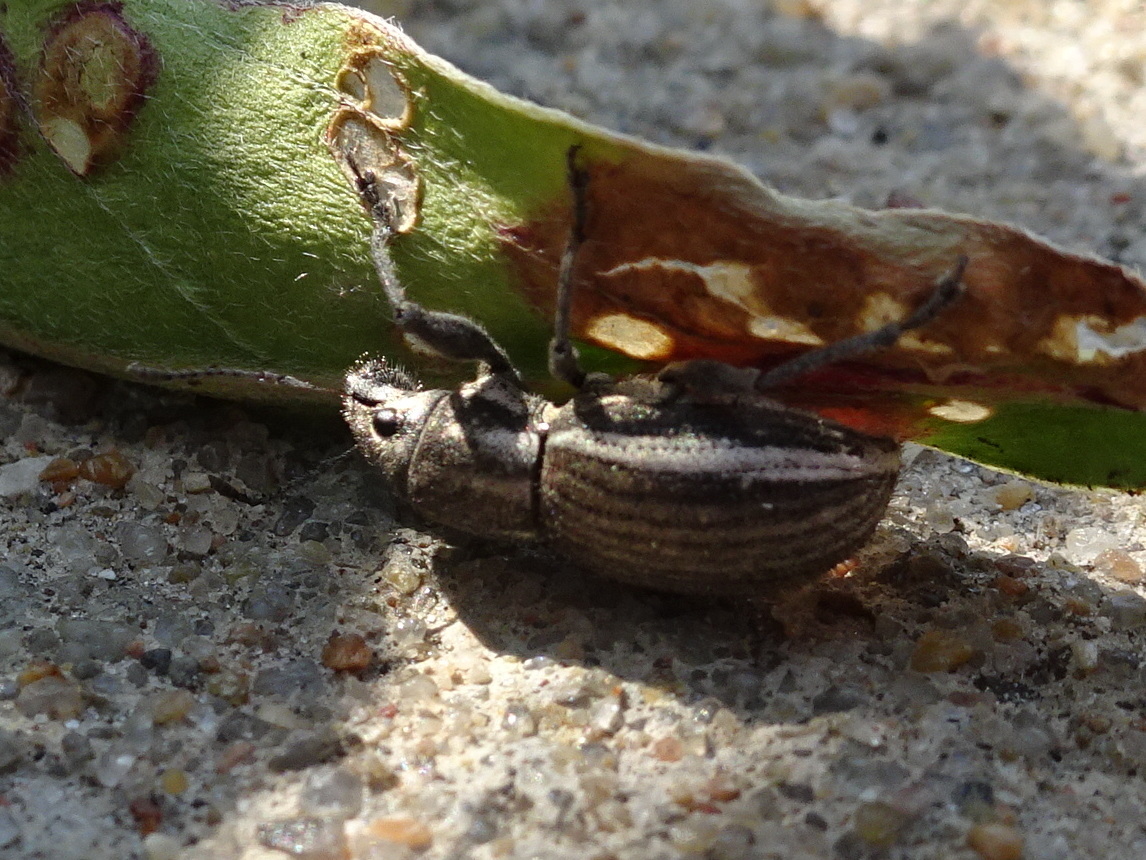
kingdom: Animalia
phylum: Arthropoda
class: Insecta
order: Coleoptera
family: Curculionidae
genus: Naupactus
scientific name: Naupactus leucoloma
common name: Whitefringed beetle
